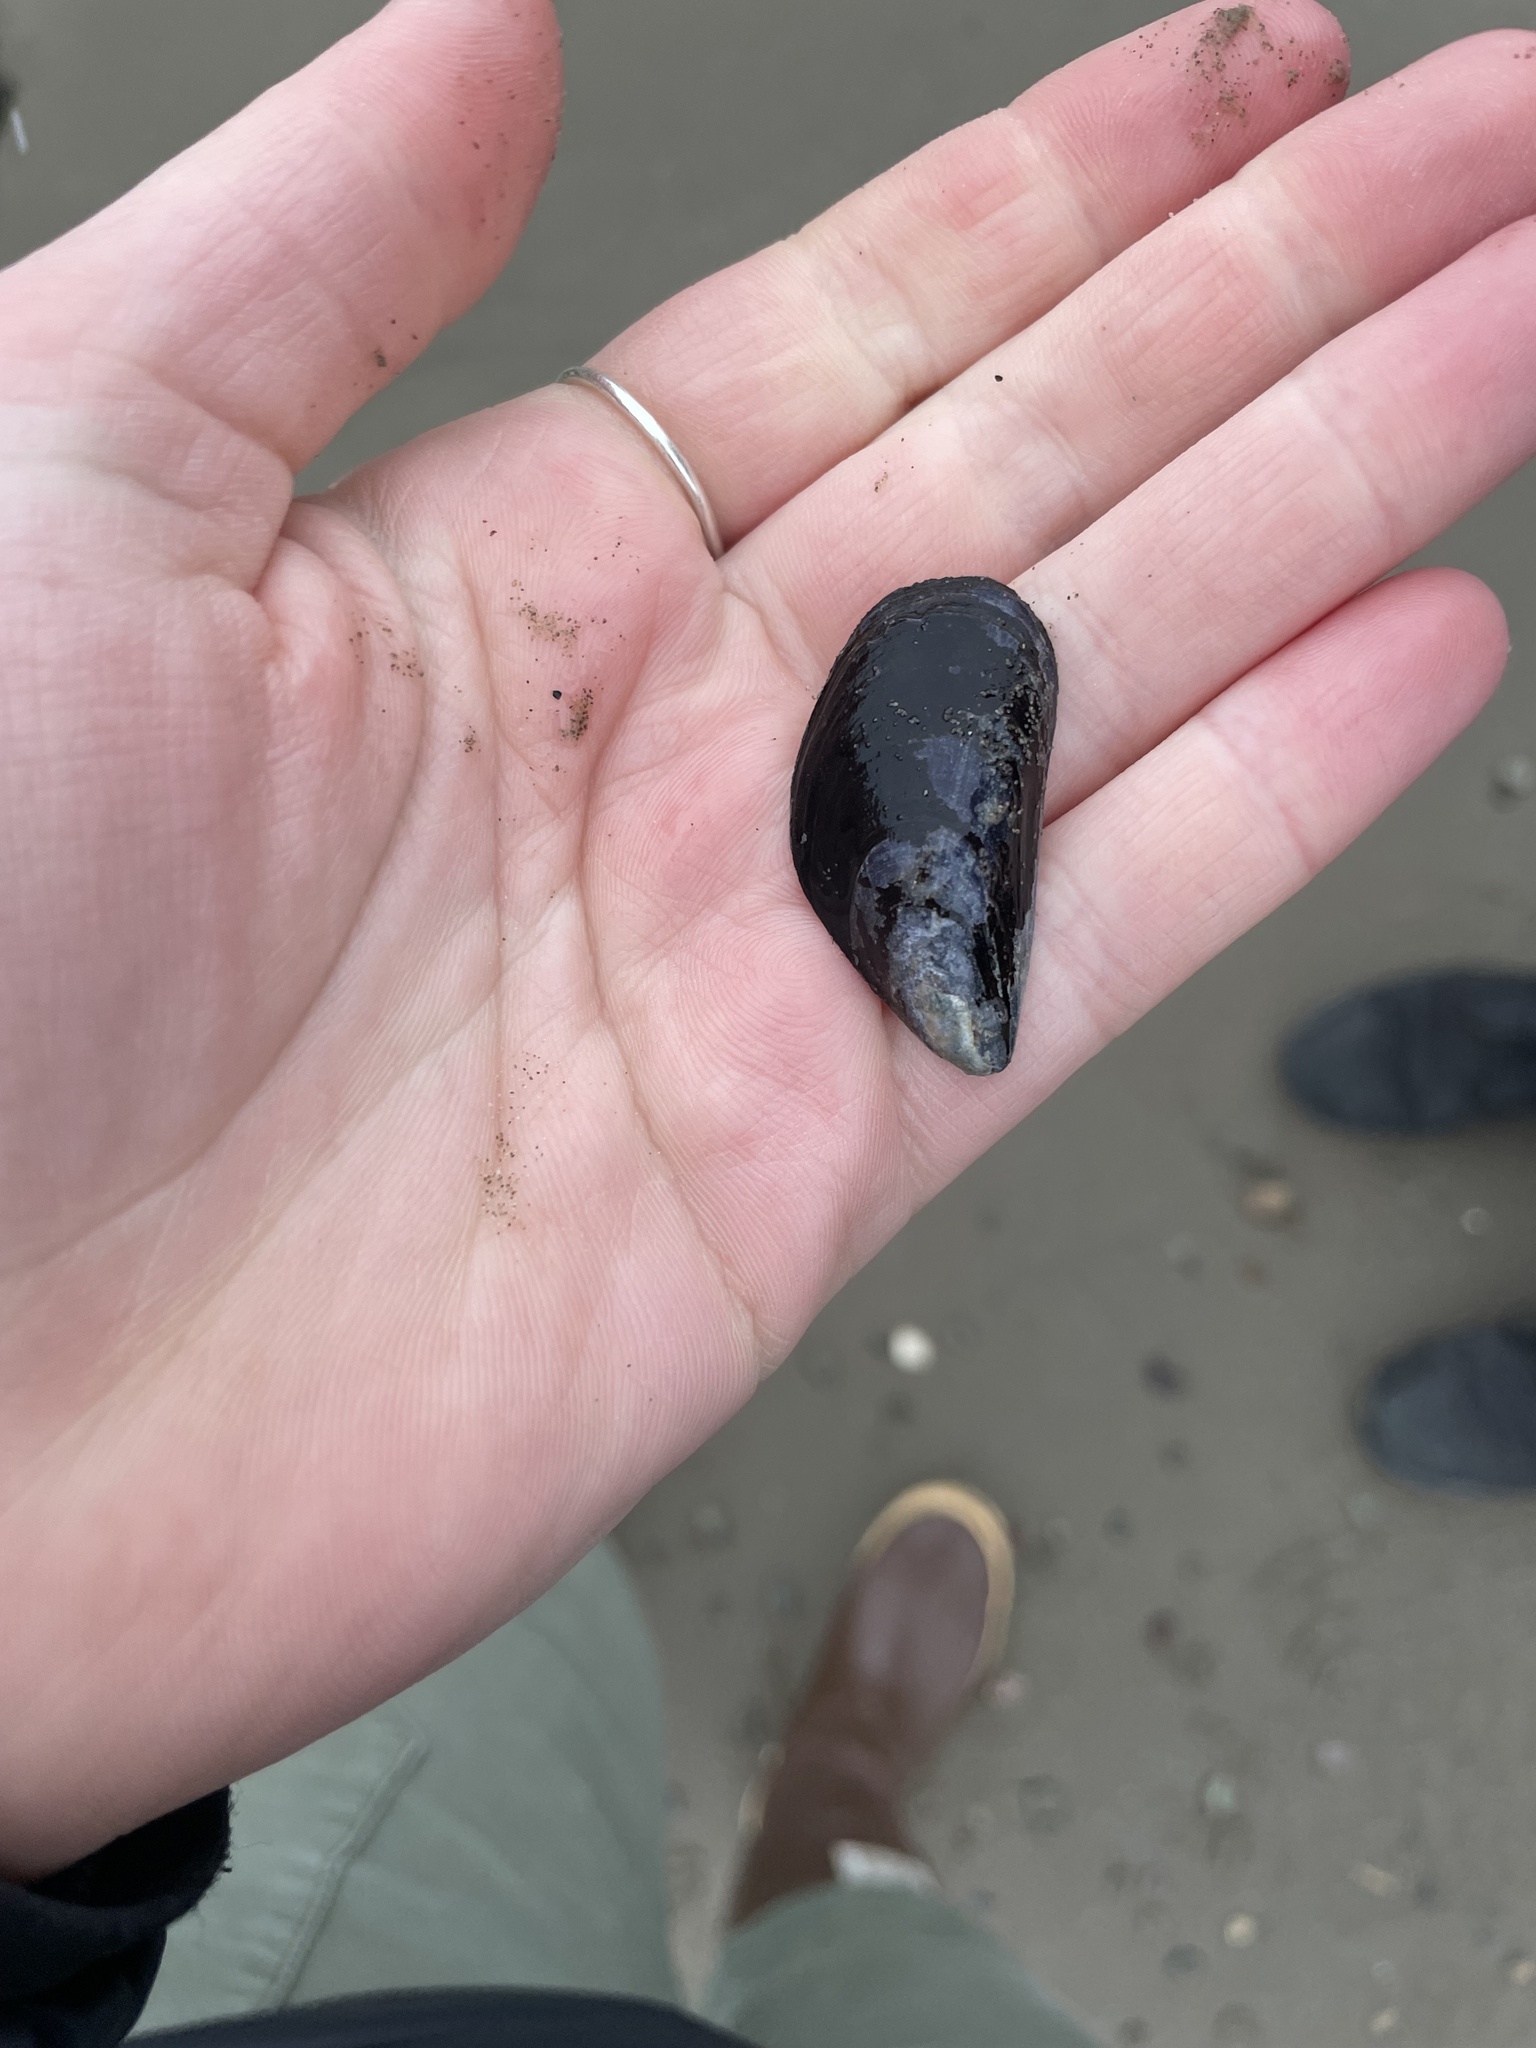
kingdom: Animalia
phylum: Mollusca
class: Bivalvia
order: Mytilida
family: Mytilidae
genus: Mytilus
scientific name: Mytilus
